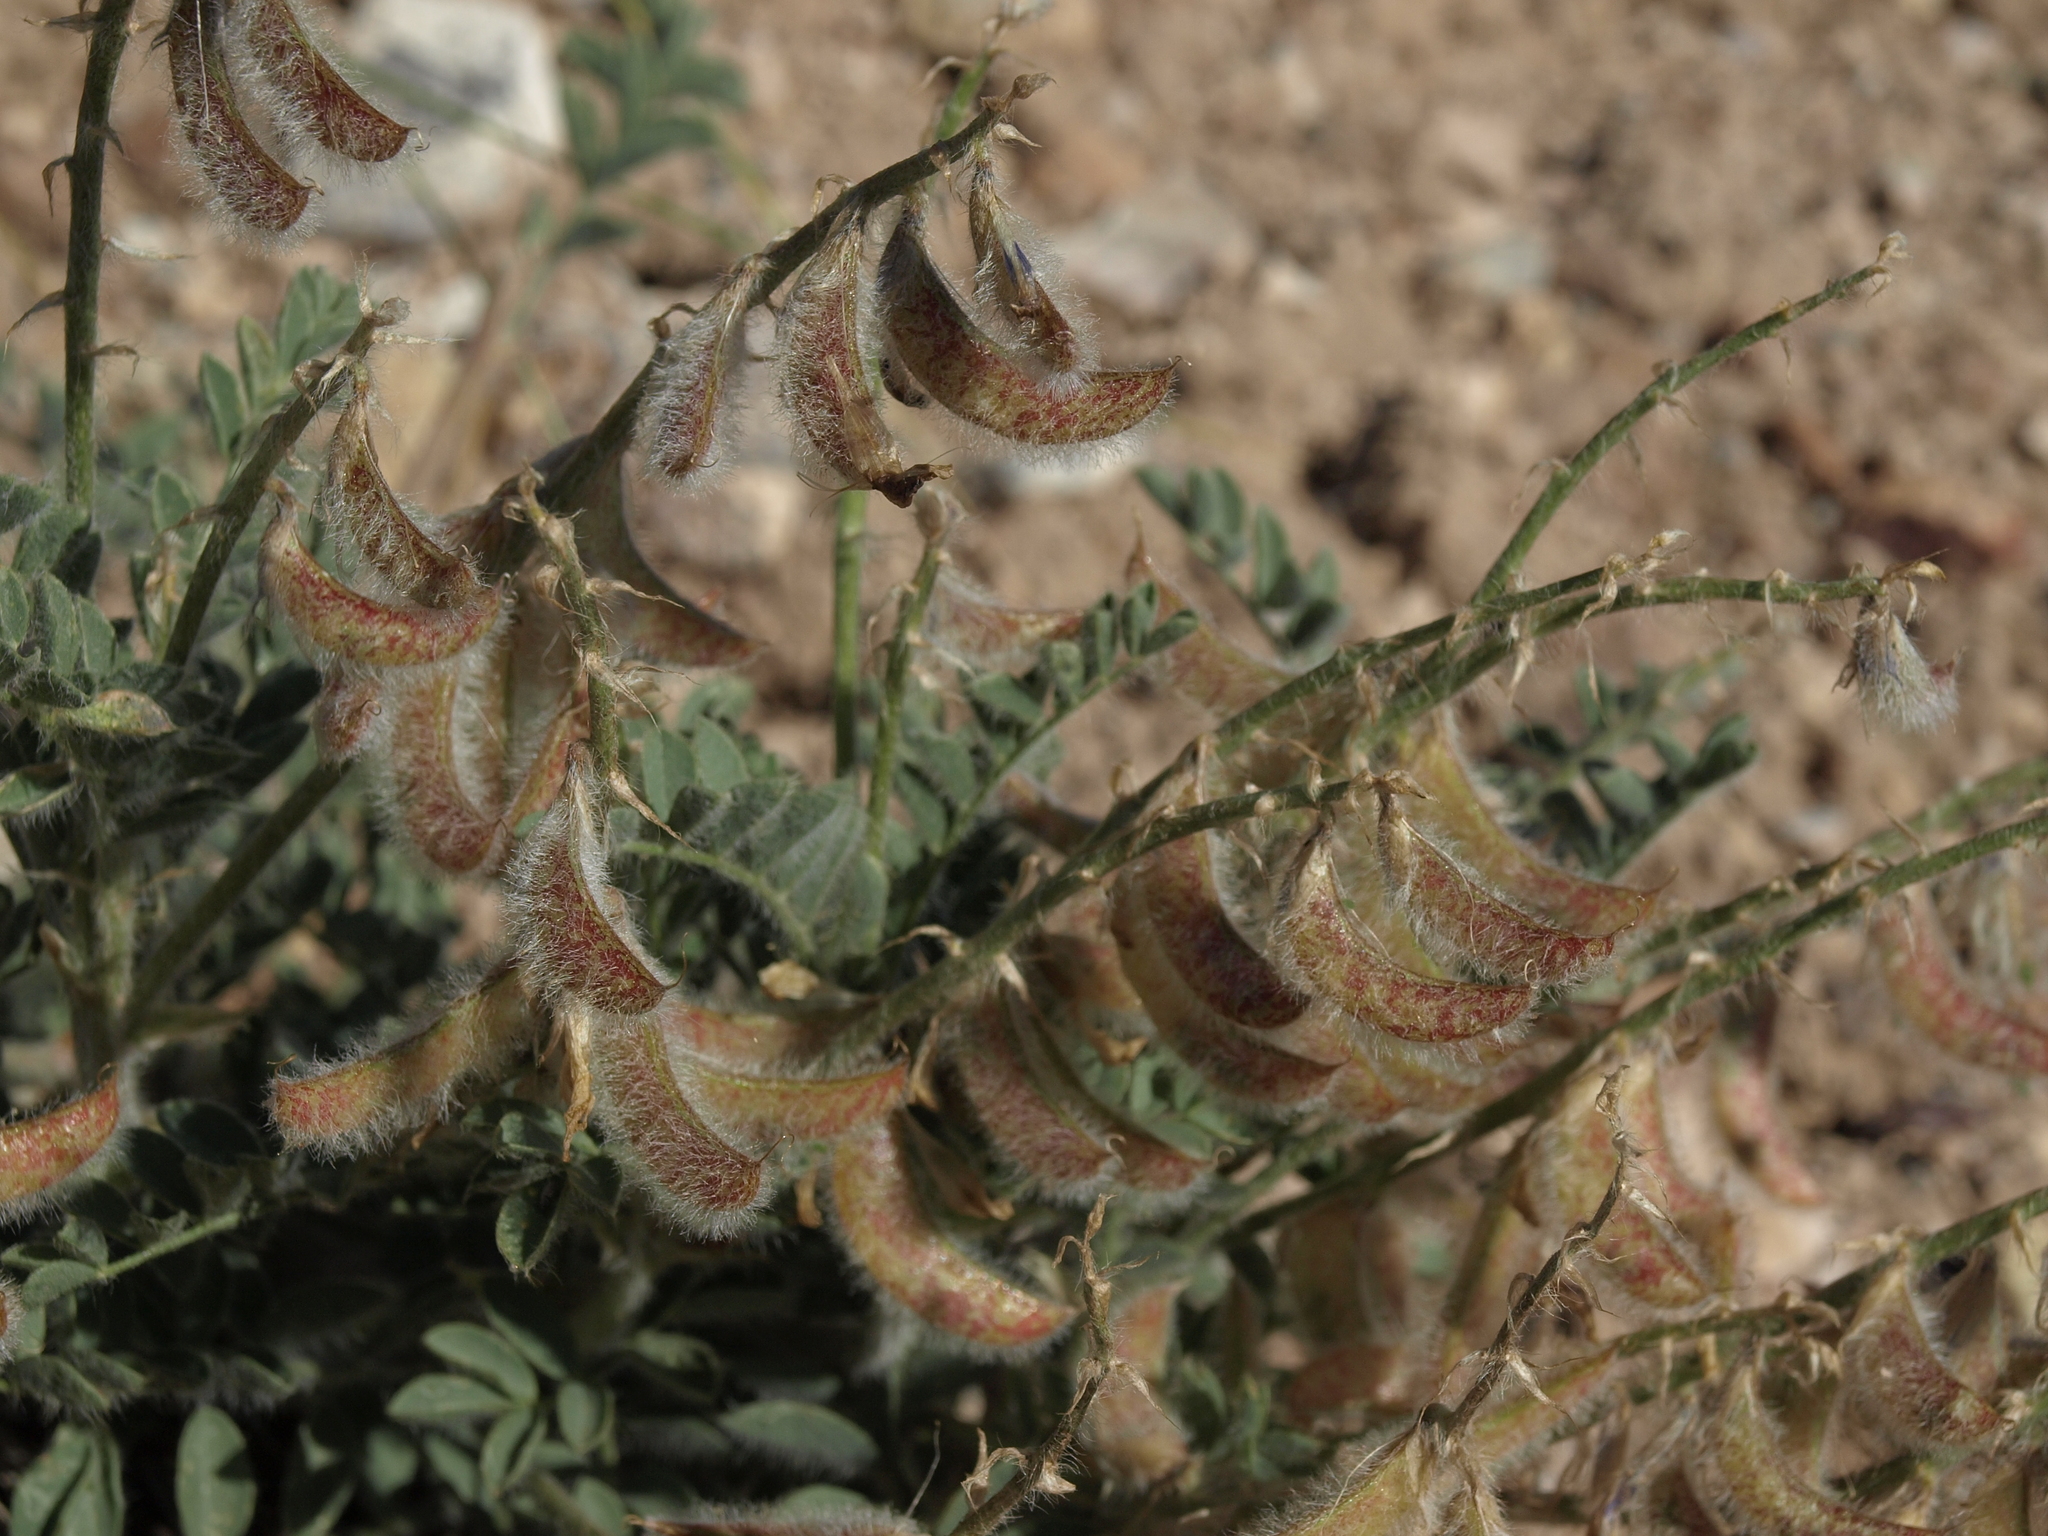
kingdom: Plantae
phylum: Tracheophyta
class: Magnoliopsida
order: Fabales
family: Fabaceae
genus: Astragalus
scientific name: Astragalus malacus
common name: Shaggy milk-vetch
